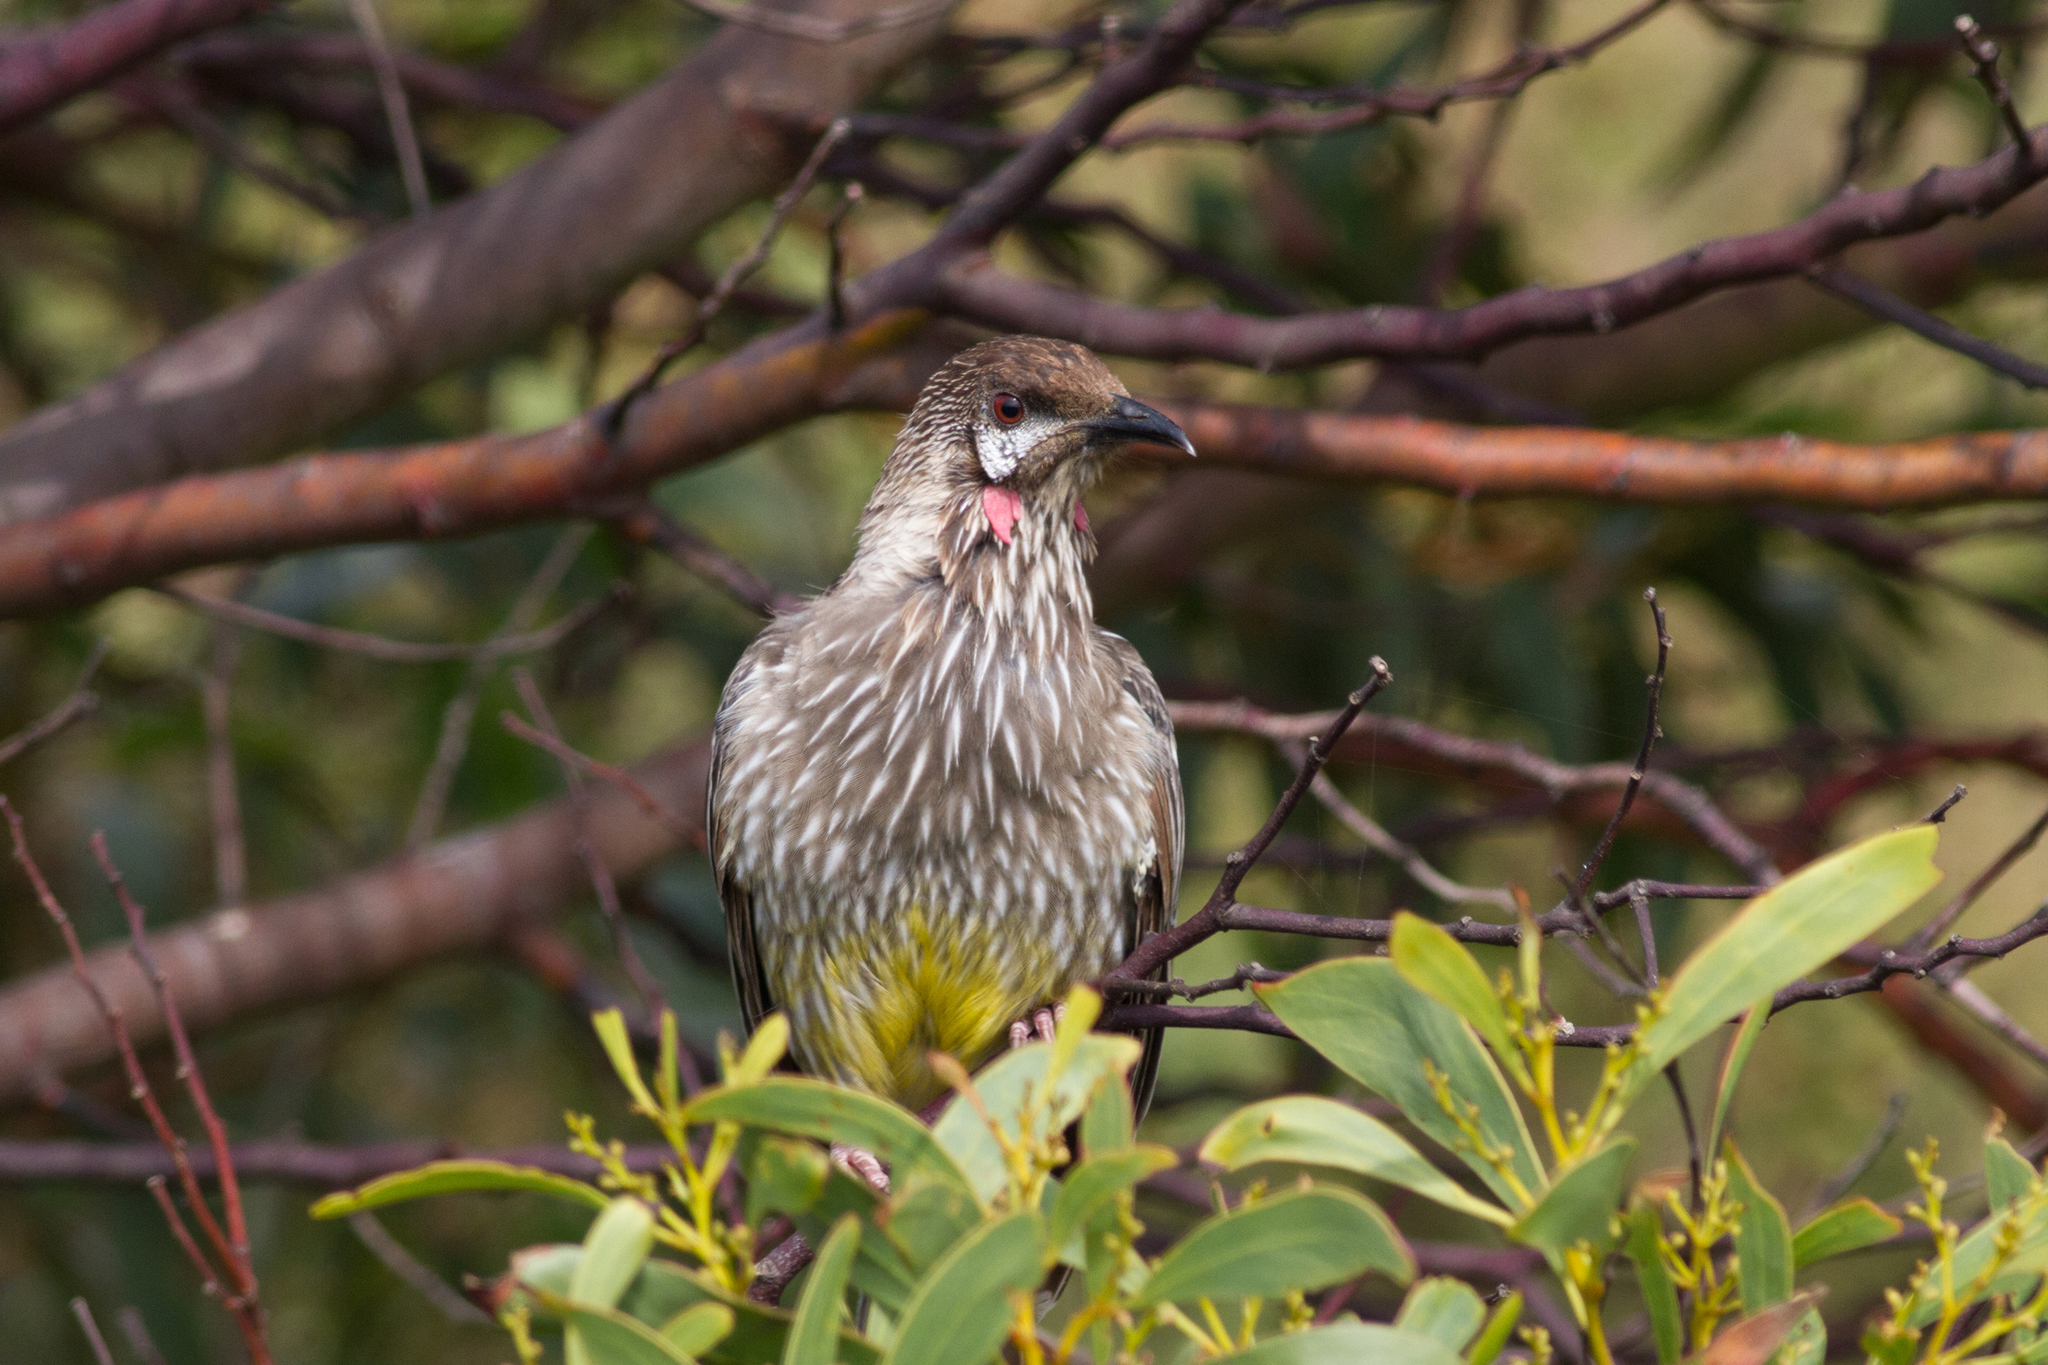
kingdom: Animalia
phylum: Chordata
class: Aves
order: Passeriformes
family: Meliphagidae
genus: Anthochaera
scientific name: Anthochaera carunculata
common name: Red wattlebird
